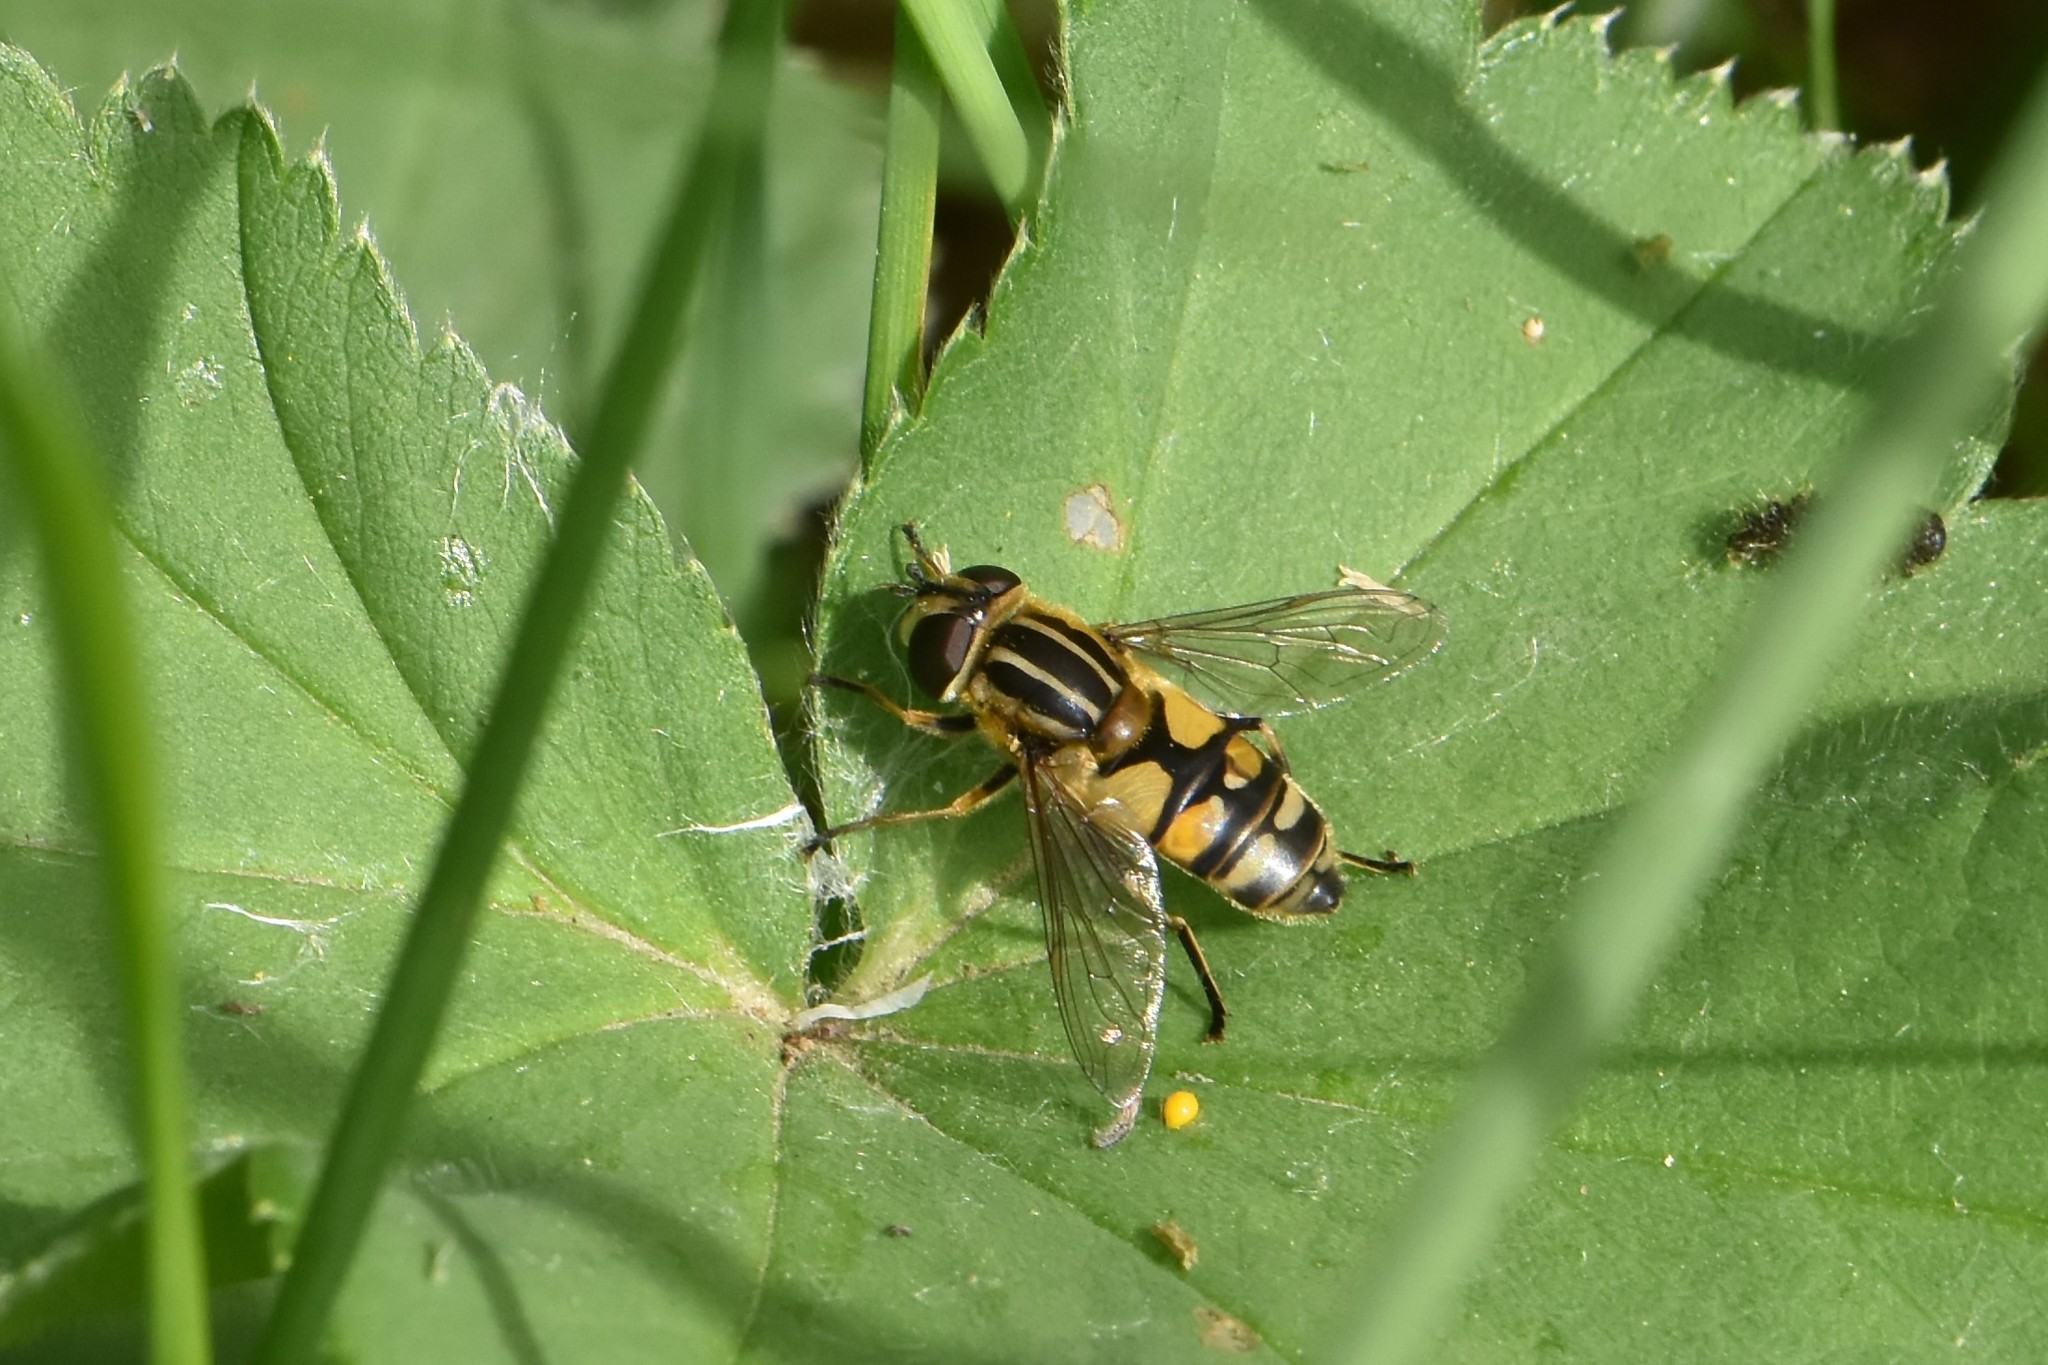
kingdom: Animalia
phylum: Arthropoda
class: Insecta
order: Diptera
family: Syrphidae
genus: Helophilus
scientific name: Helophilus hybridus
